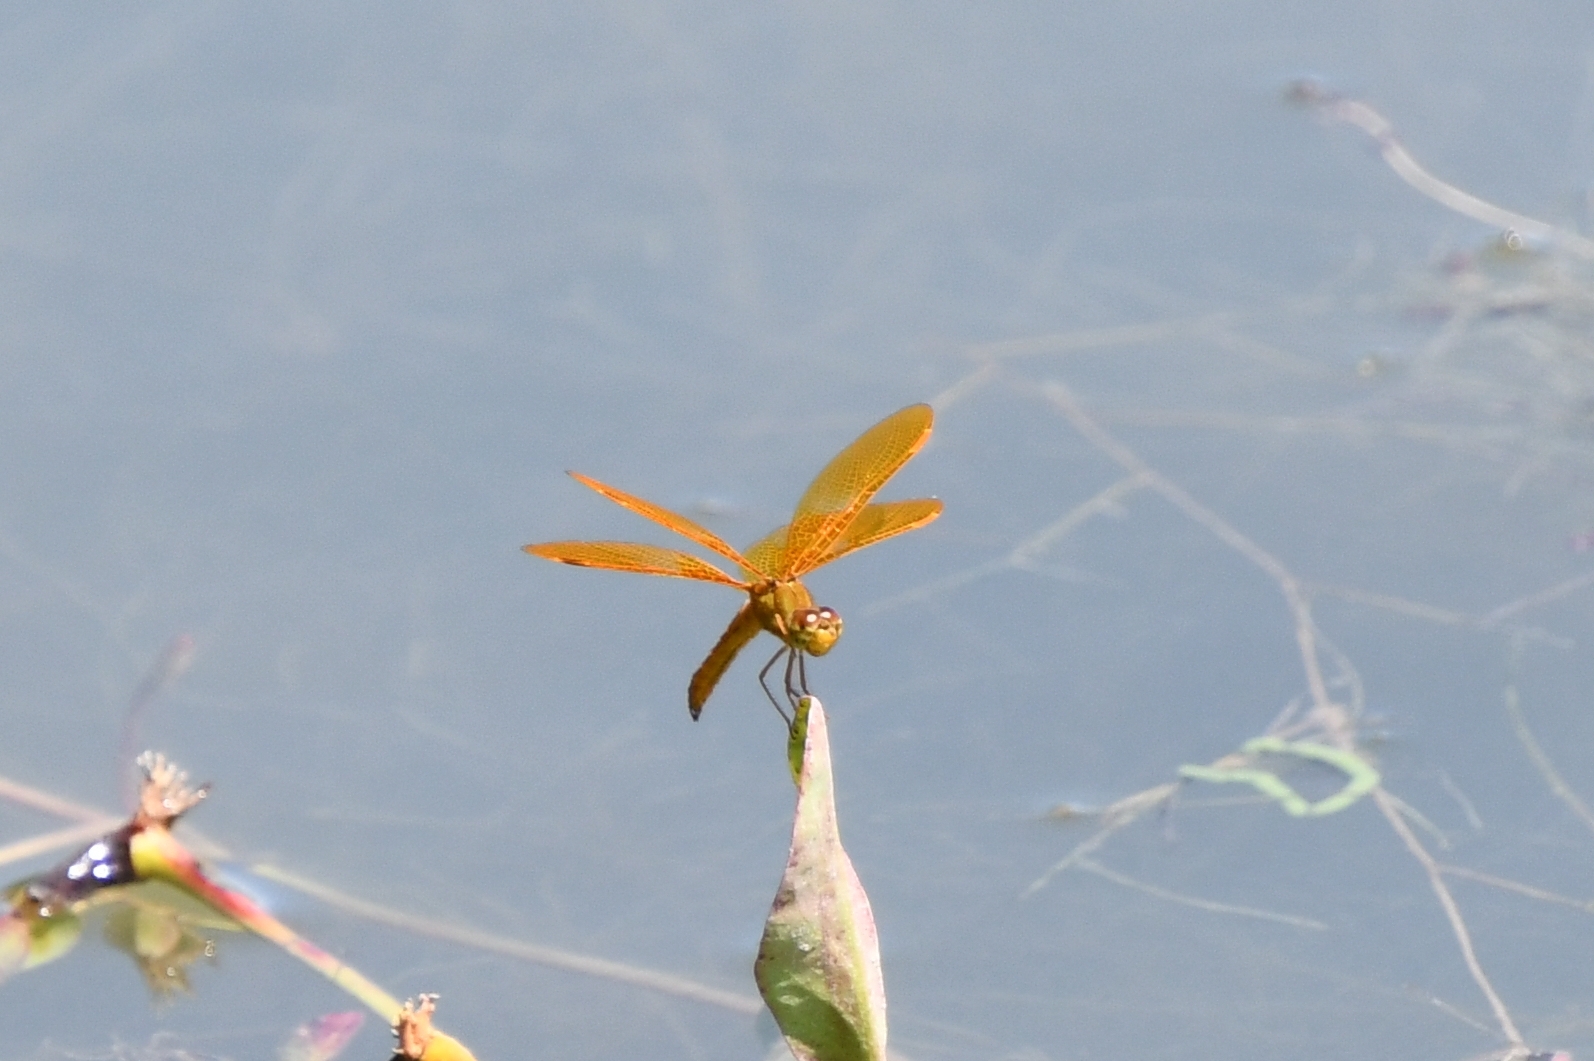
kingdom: Animalia
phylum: Arthropoda
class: Insecta
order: Odonata
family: Libellulidae
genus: Perithemis
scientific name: Perithemis intensa
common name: Mexican amberwing
